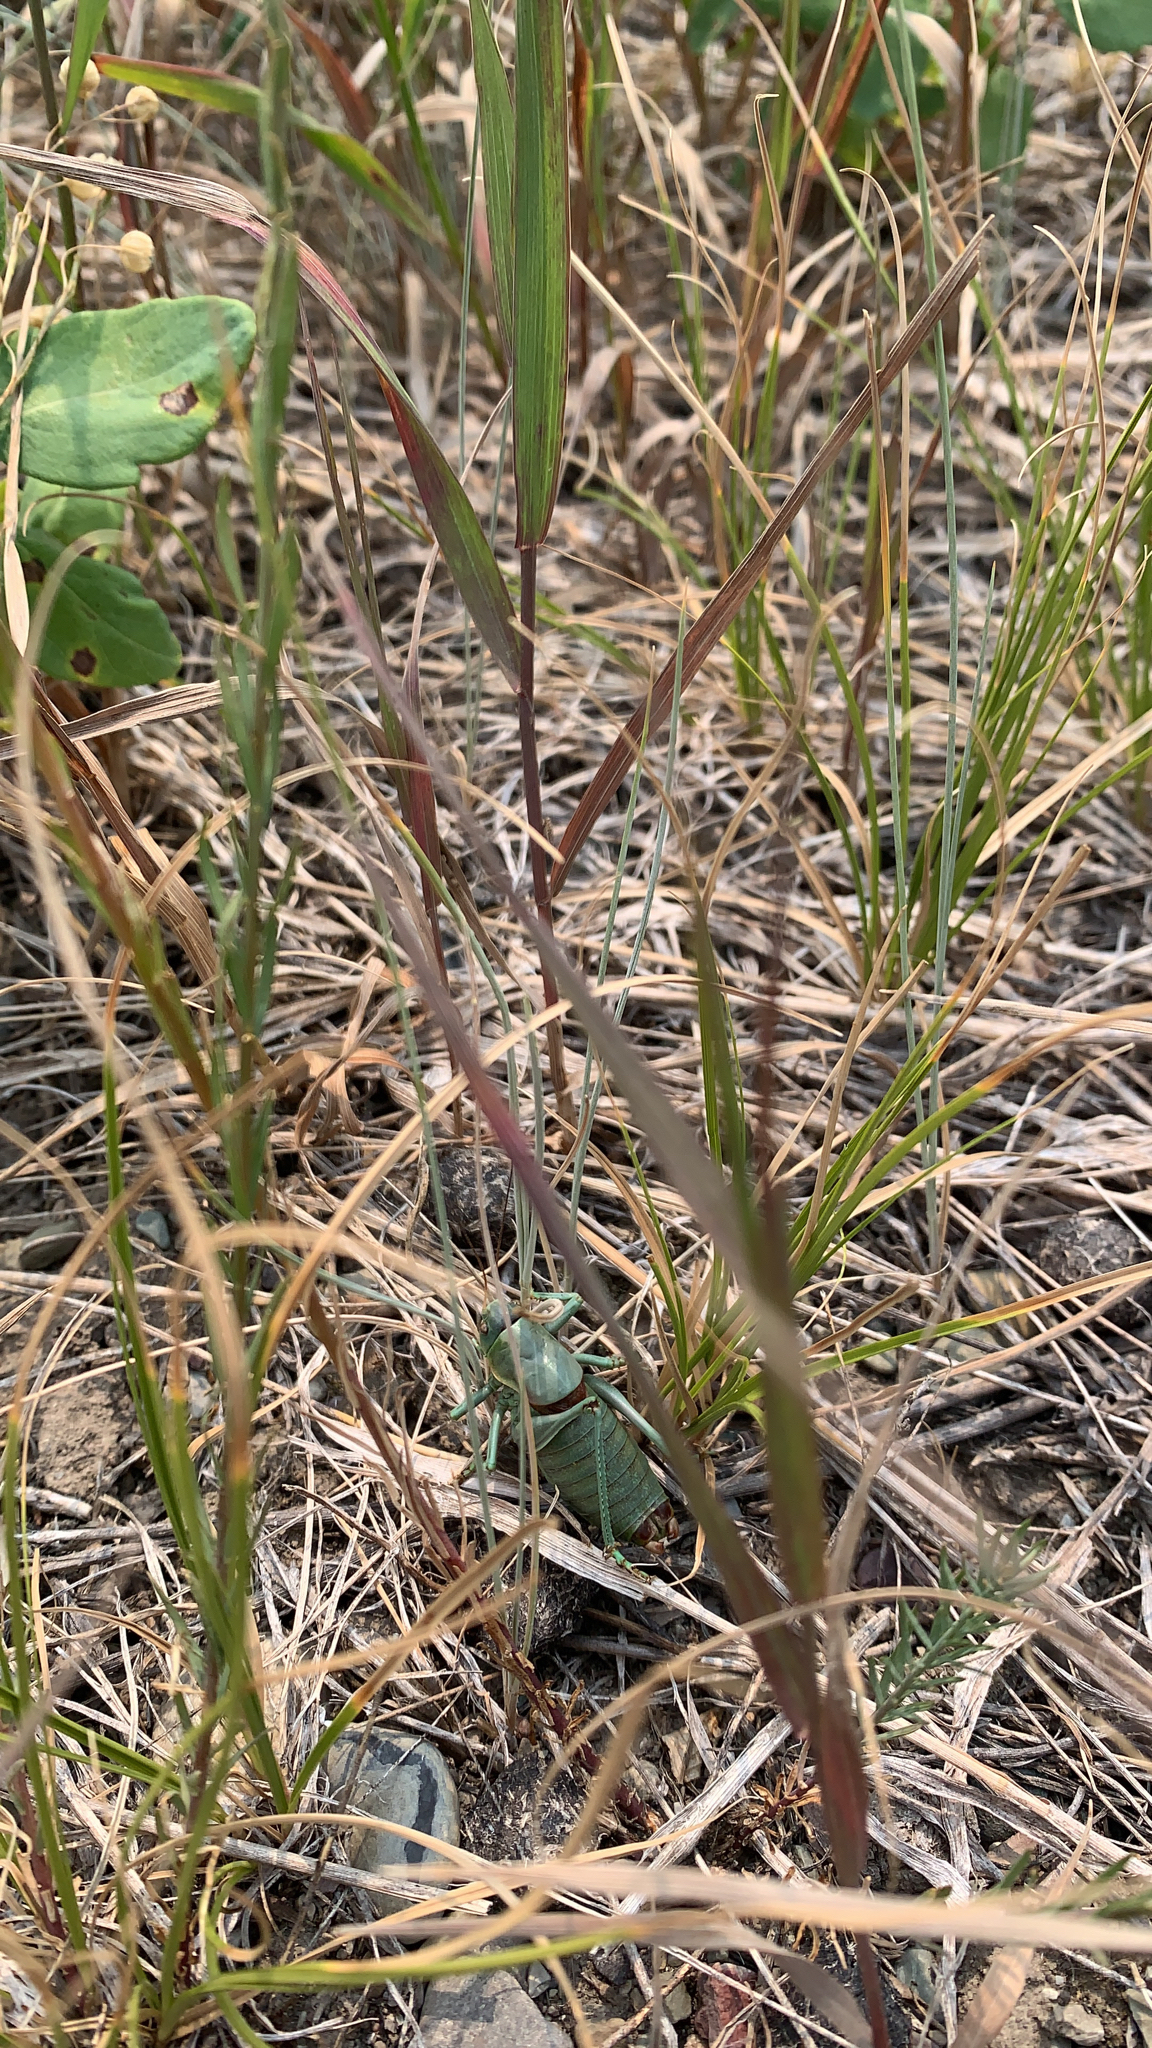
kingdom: Animalia
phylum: Arthropoda
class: Insecta
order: Orthoptera
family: Tettigoniidae
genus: Anabrus
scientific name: Anabrus simplex
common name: Mormon cricket
